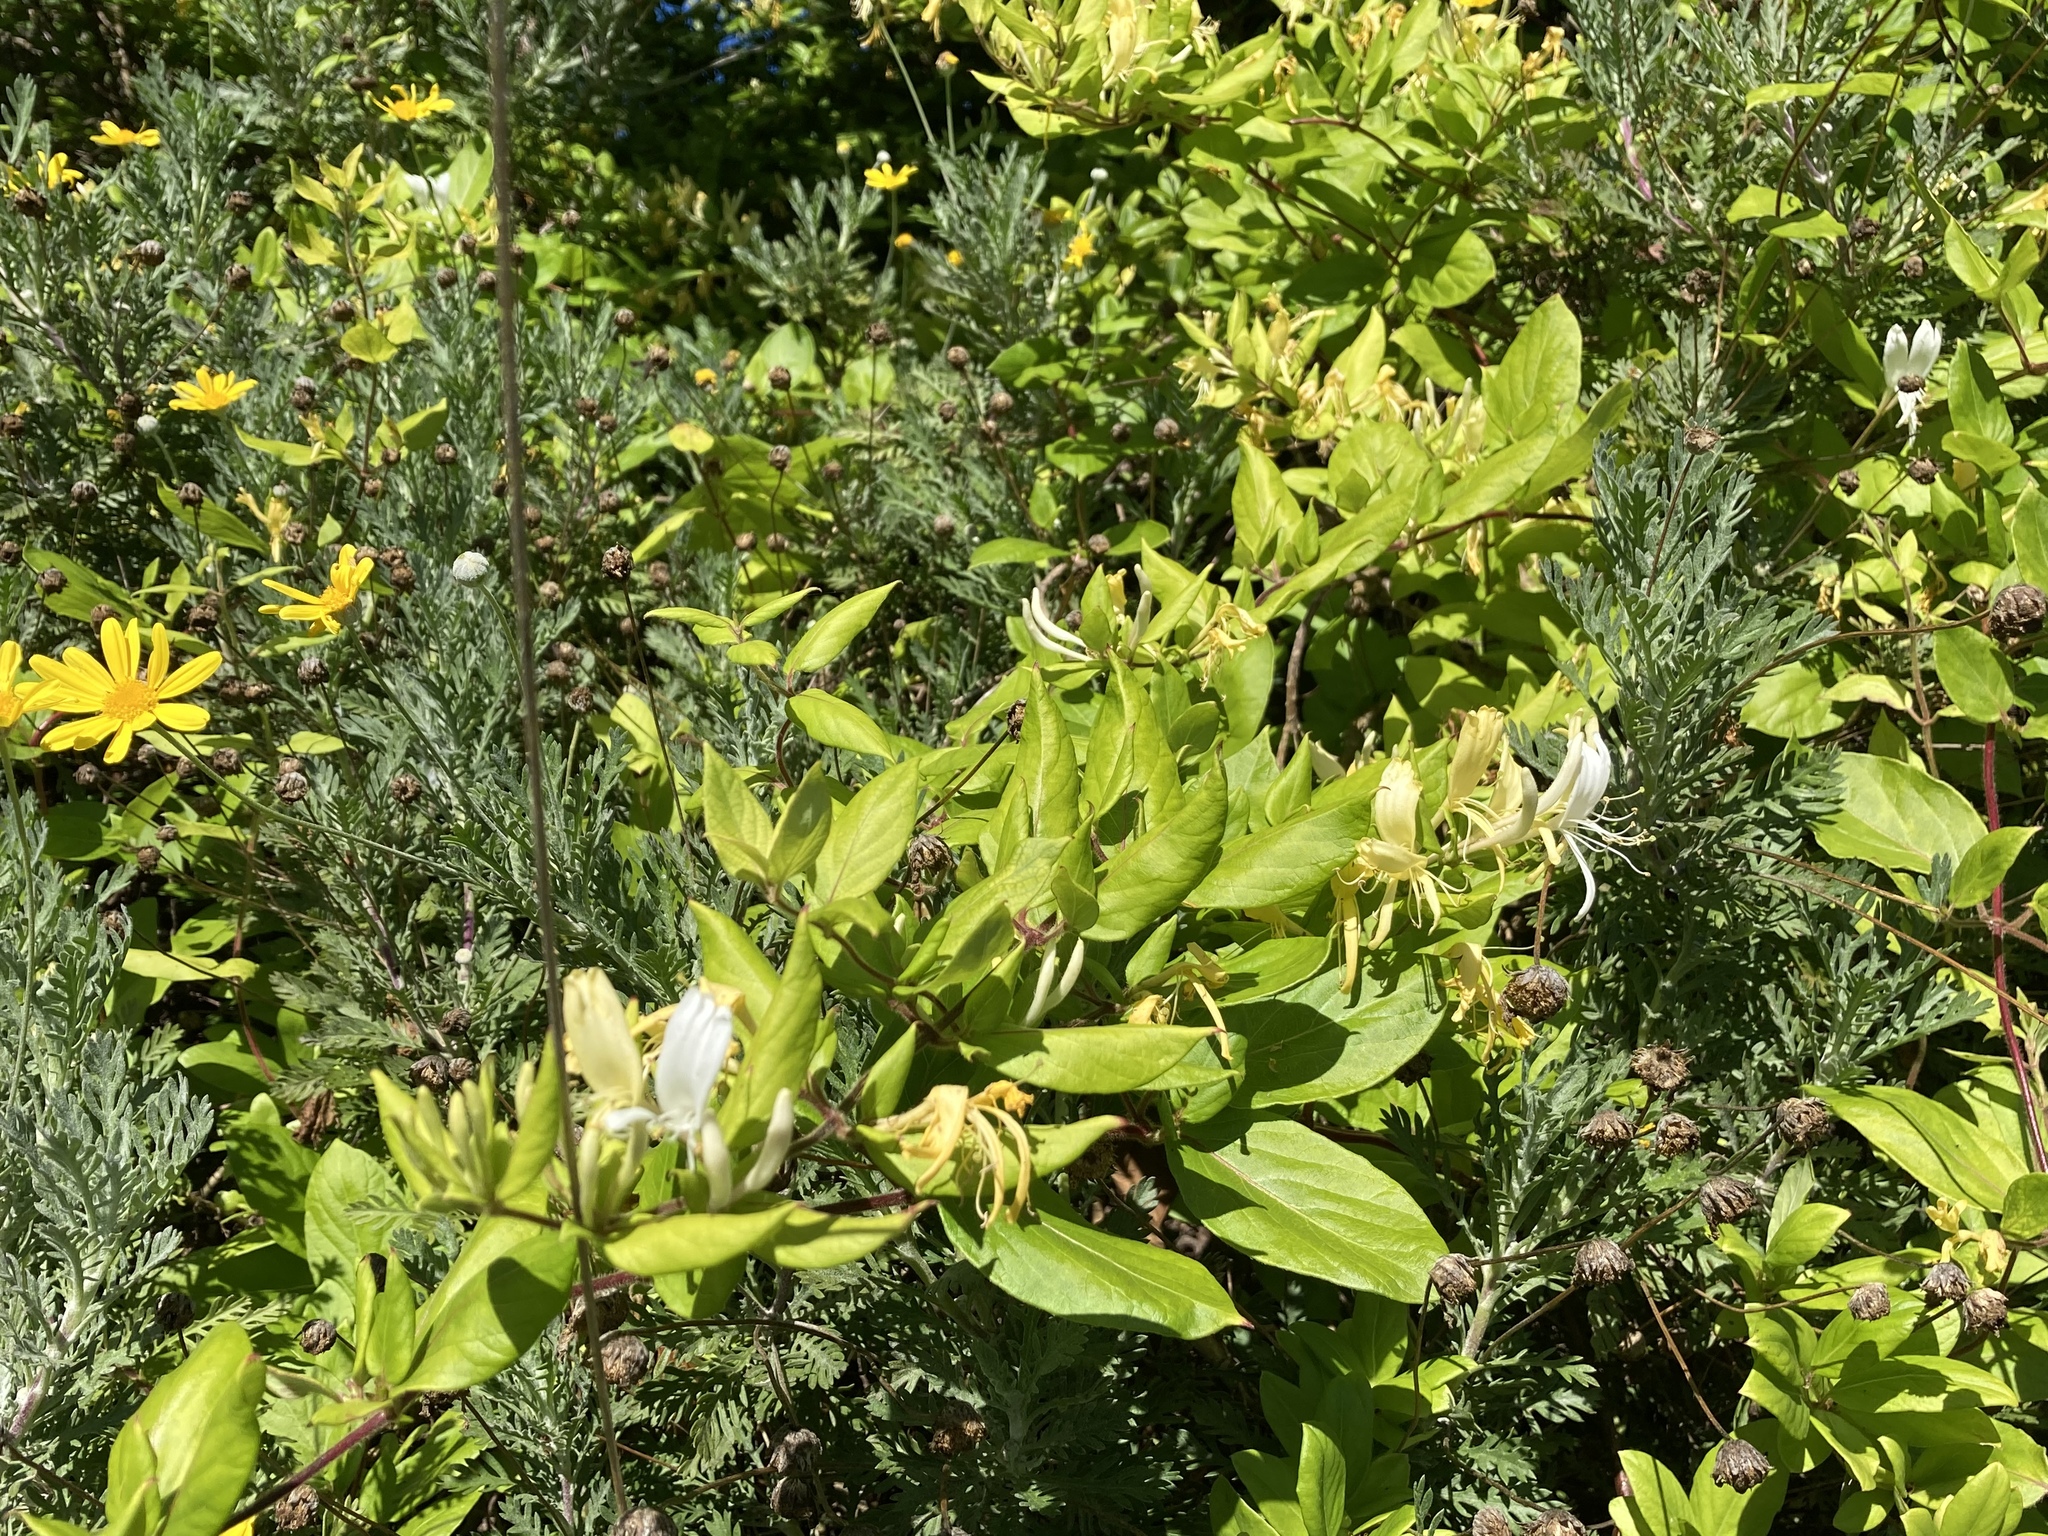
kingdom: Plantae
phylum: Tracheophyta
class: Magnoliopsida
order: Dipsacales
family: Caprifoliaceae
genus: Lonicera
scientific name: Lonicera japonica
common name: Japanese honeysuckle
